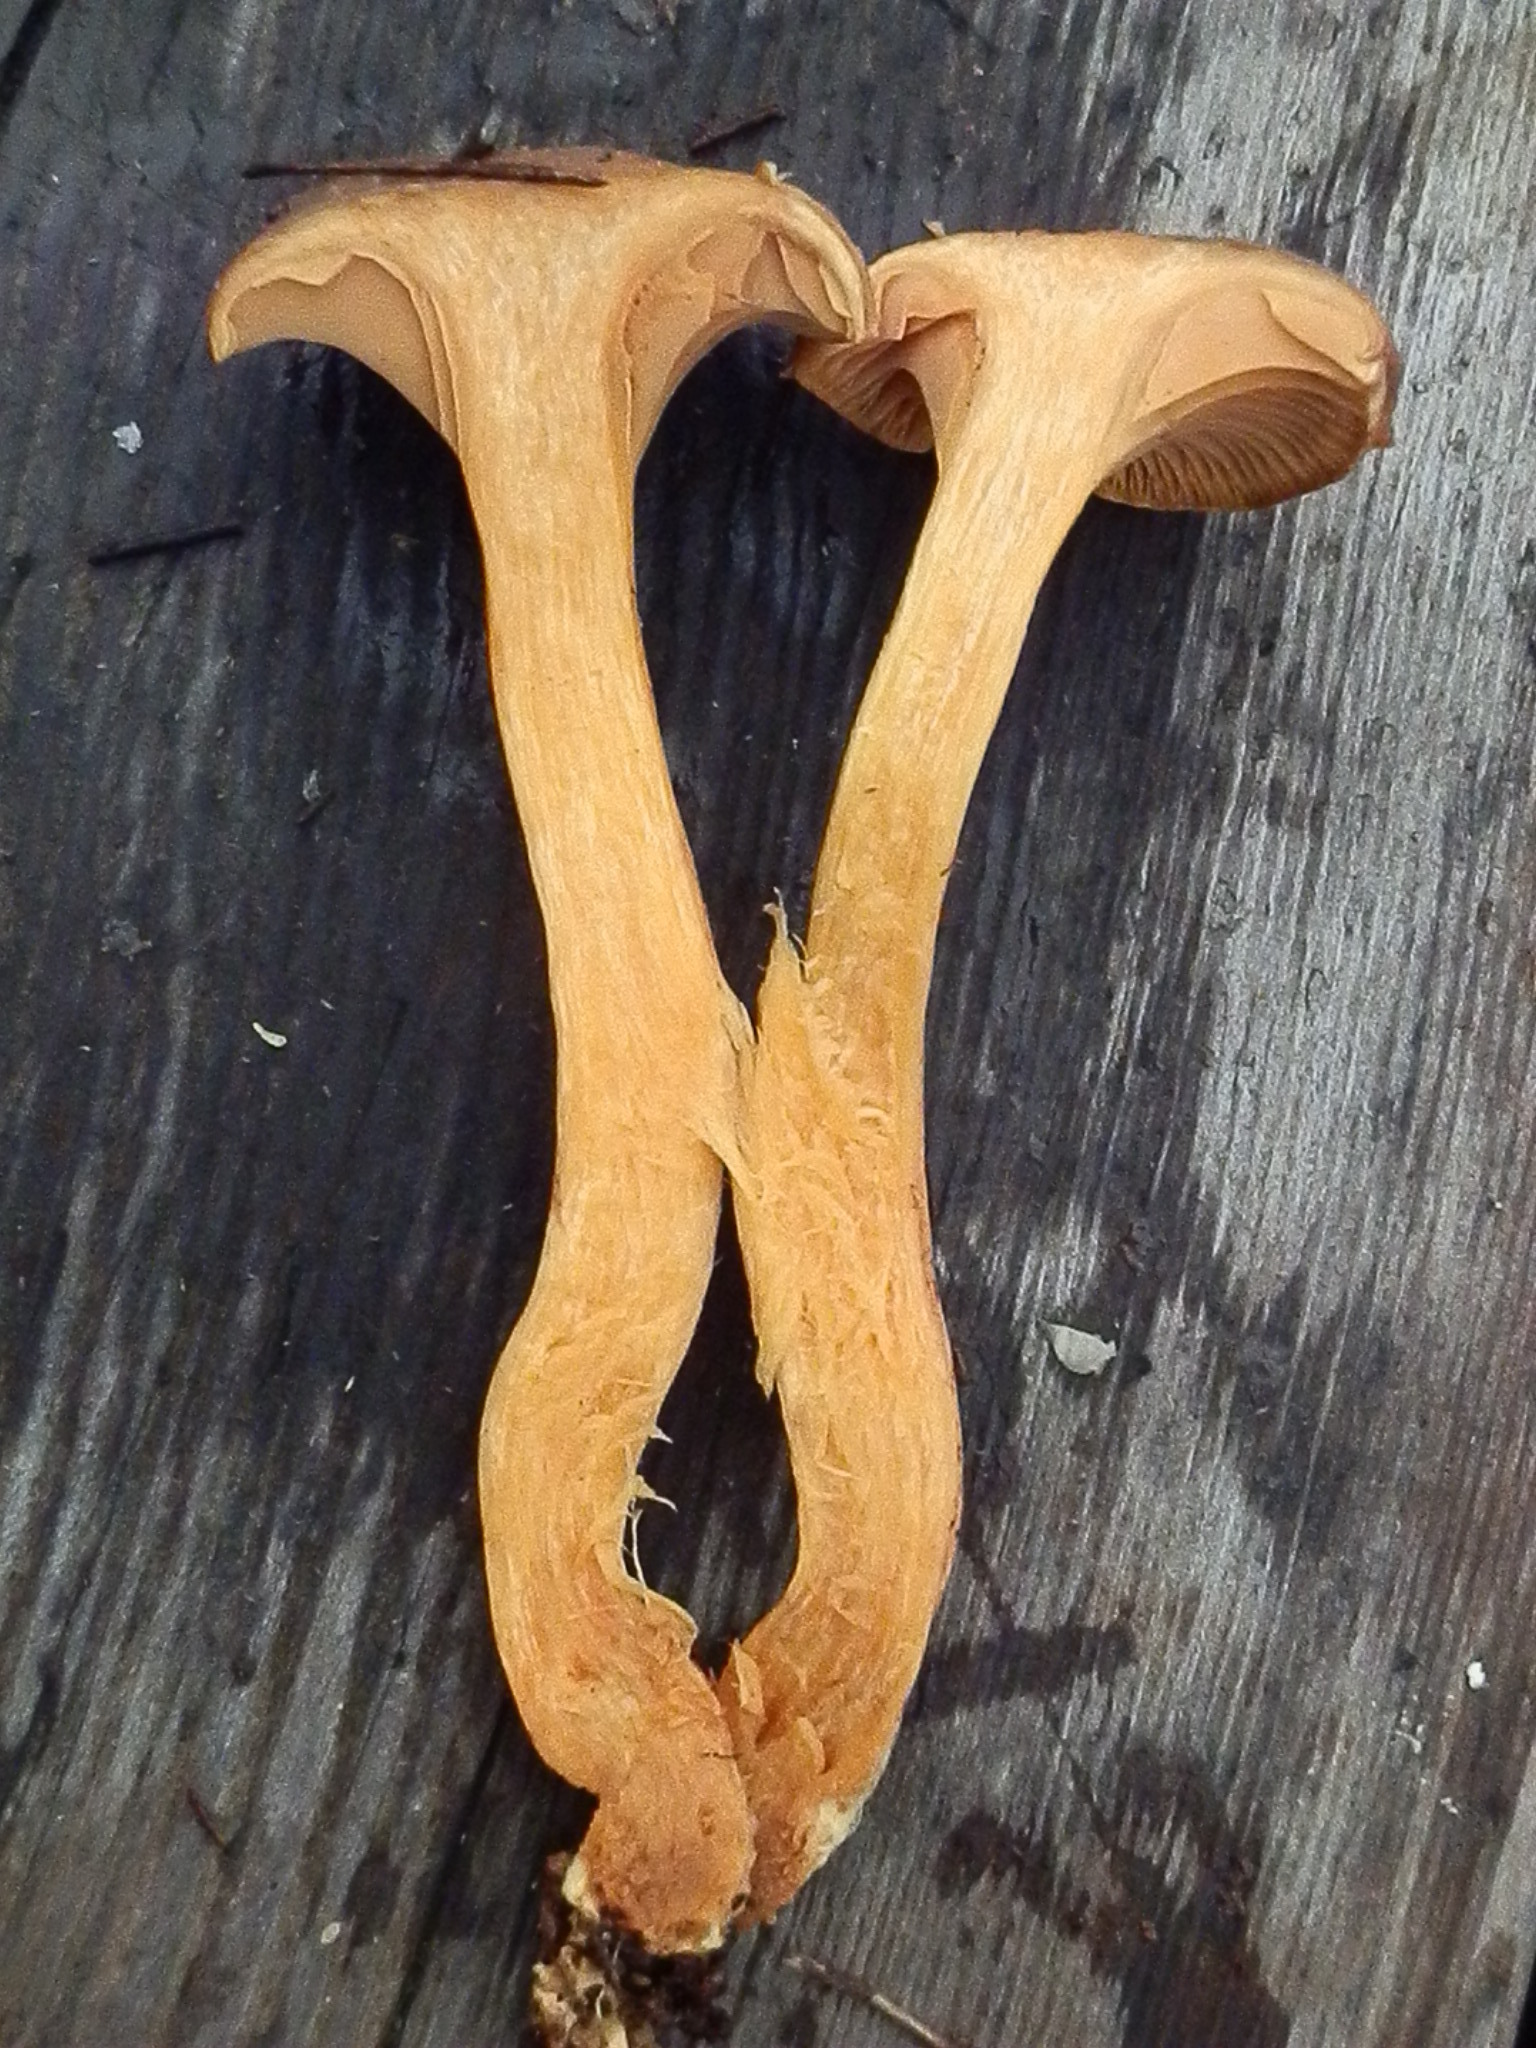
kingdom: Fungi
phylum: Basidiomycota
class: Agaricomycetes
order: Boletales
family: Gomphidiaceae
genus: Chroogomphus
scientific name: Chroogomphus ochraceus
